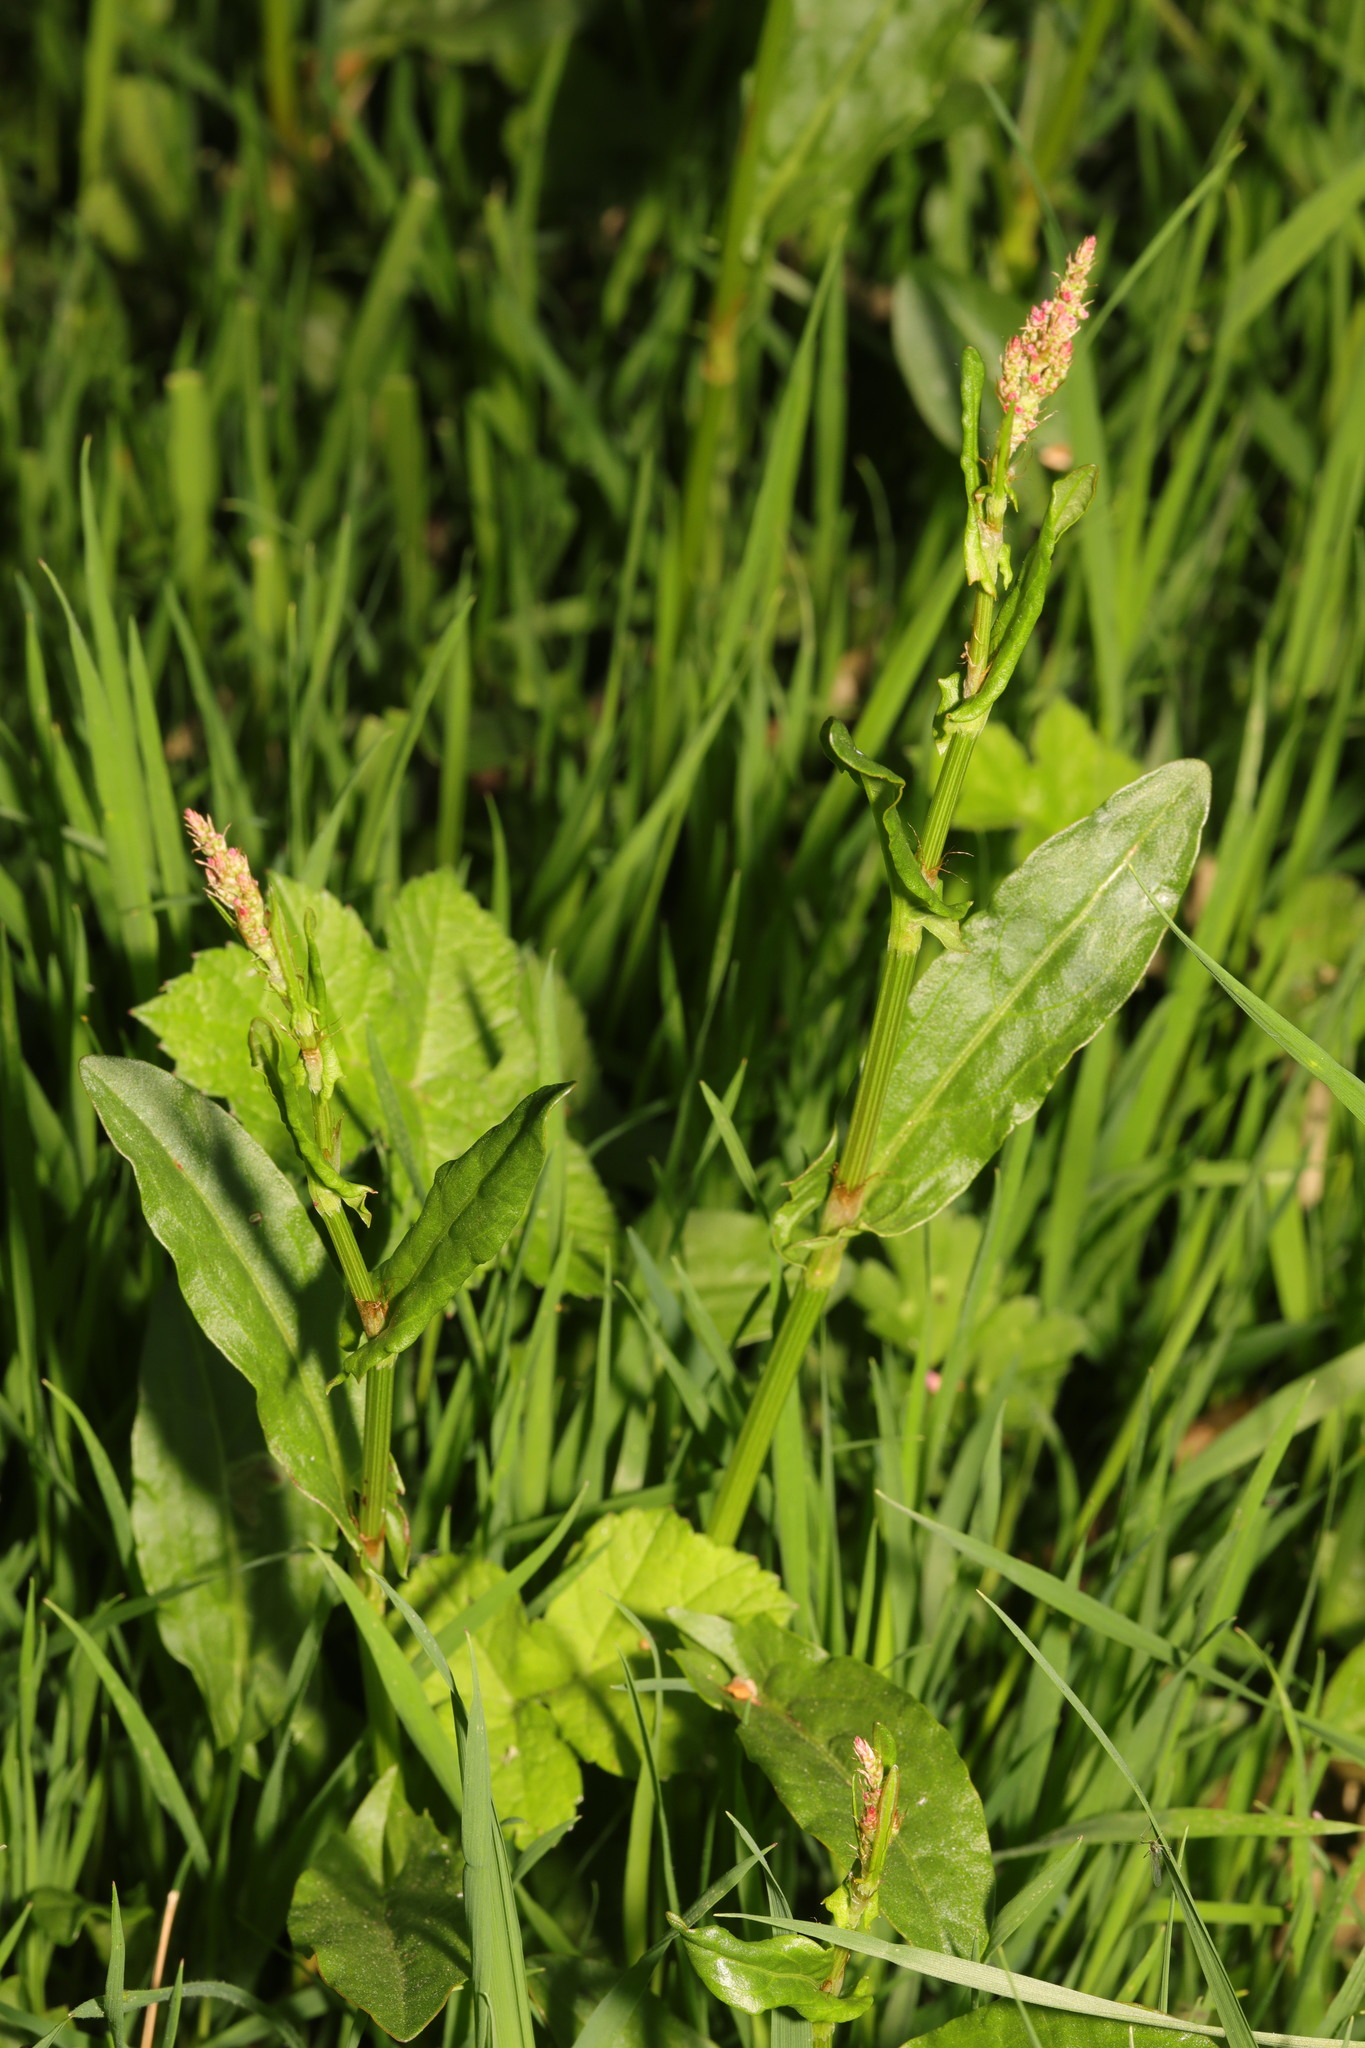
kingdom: Plantae
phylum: Tracheophyta
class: Magnoliopsida
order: Caryophyllales
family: Polygonaceae
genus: Rumex
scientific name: Rumex acetosa
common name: Garden sorrel
